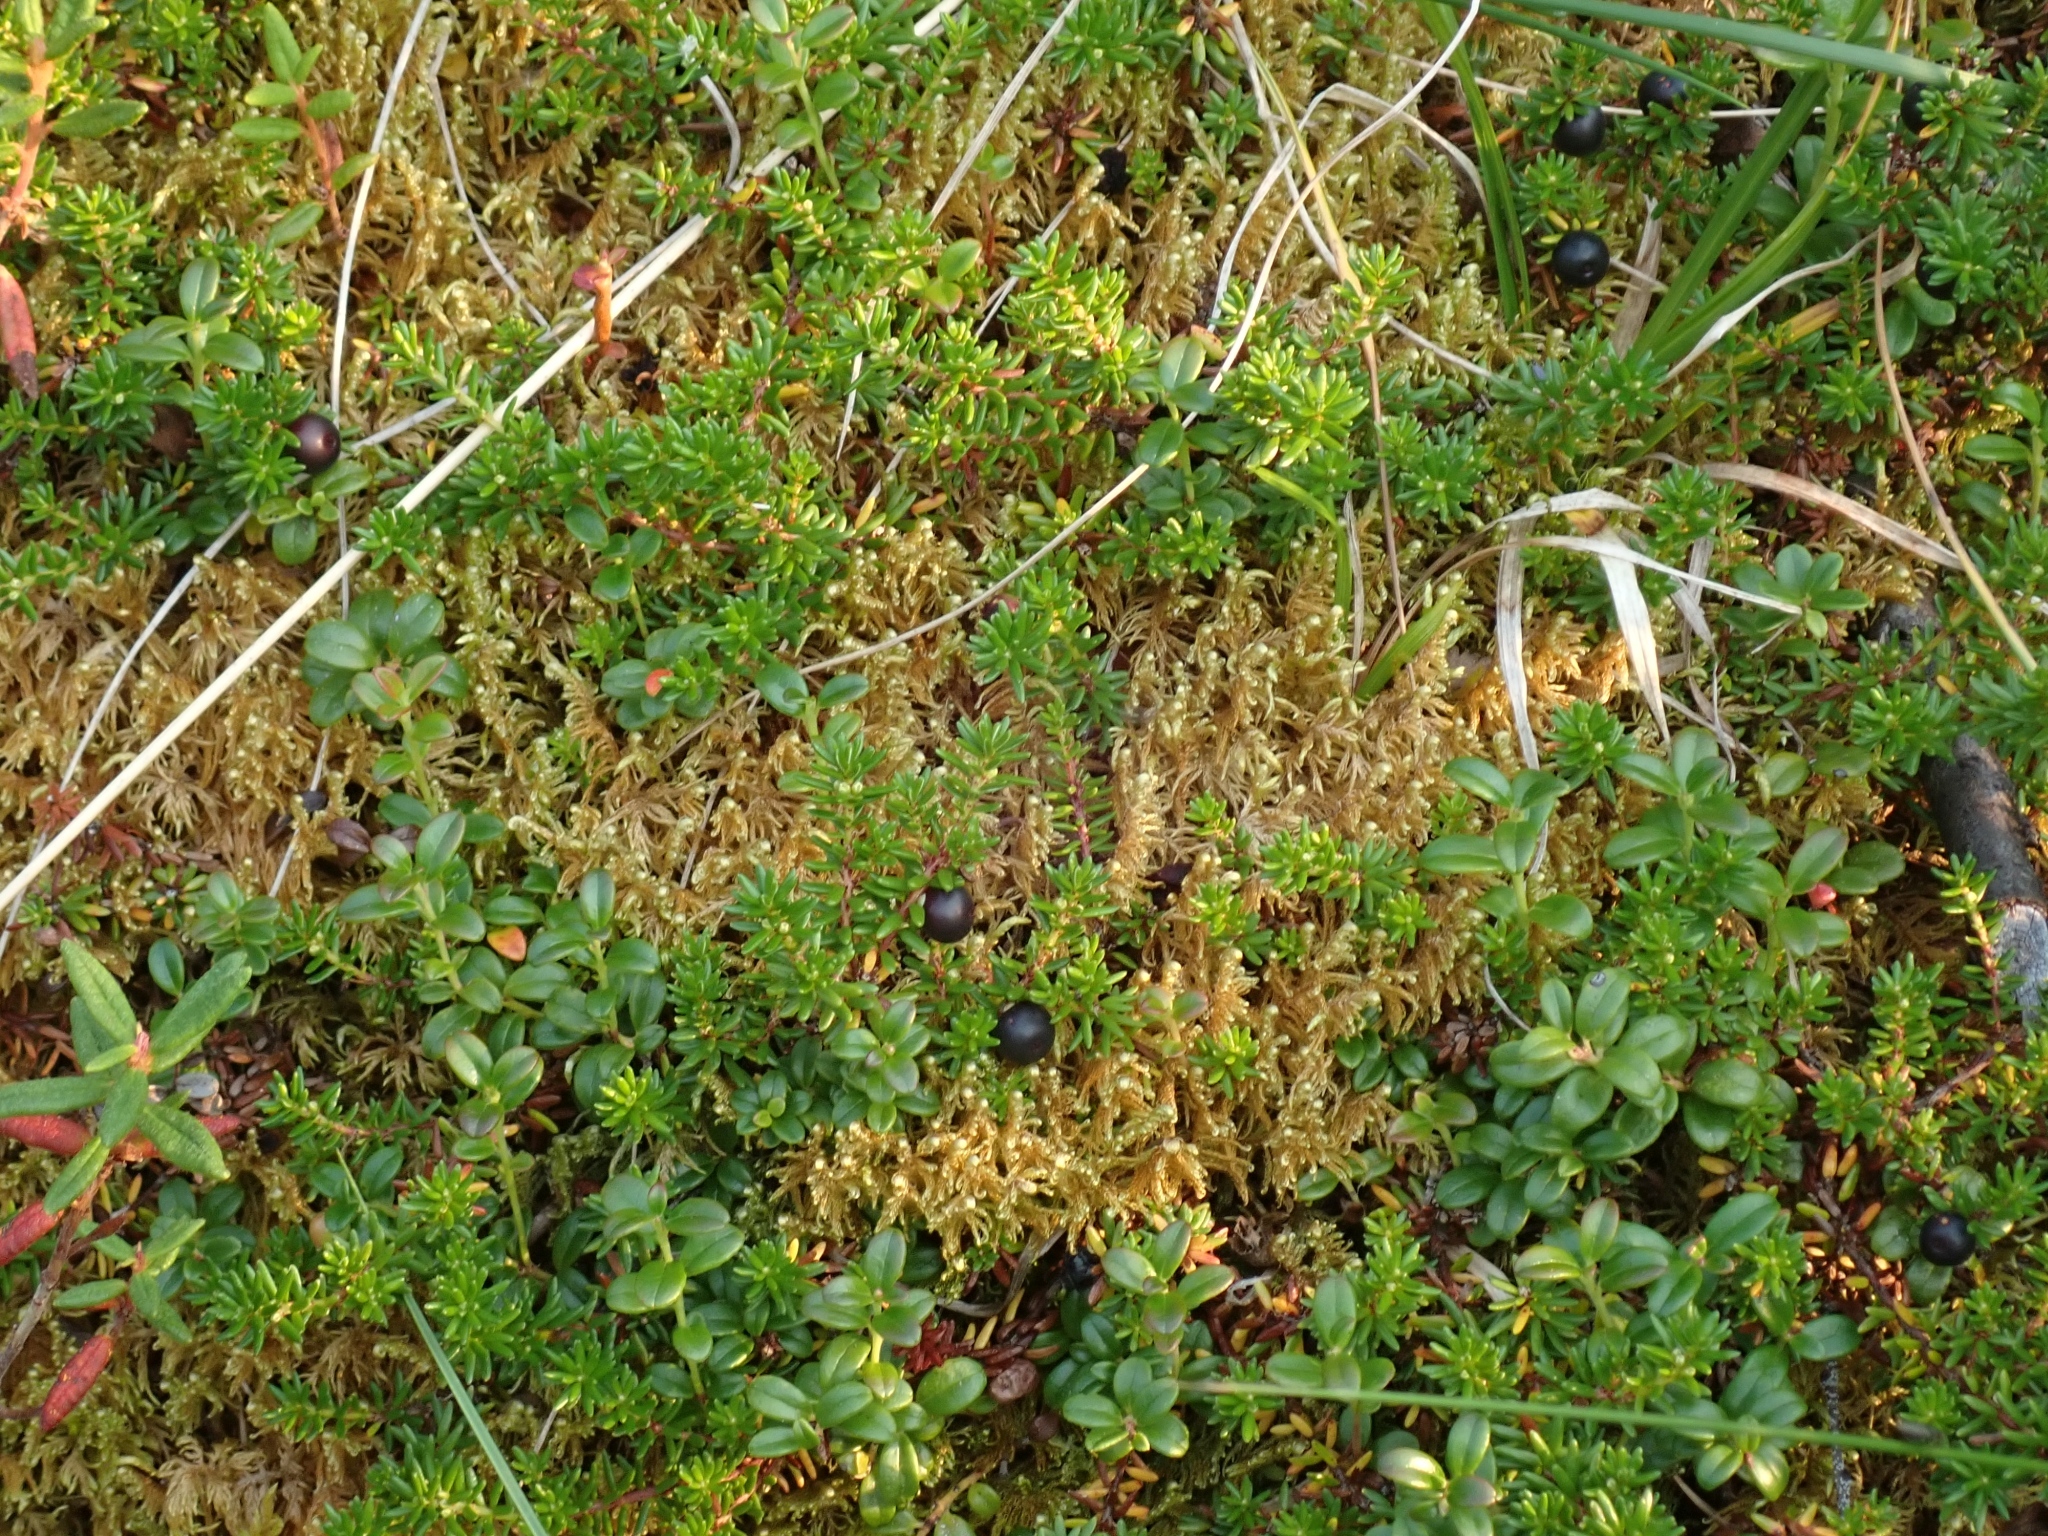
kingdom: Plantae
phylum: Tracheophyta
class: Magnoliopsida
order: Ericales
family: Ericaceae
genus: Empetrum
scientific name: Empetrum nigrum
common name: Black crowberry
